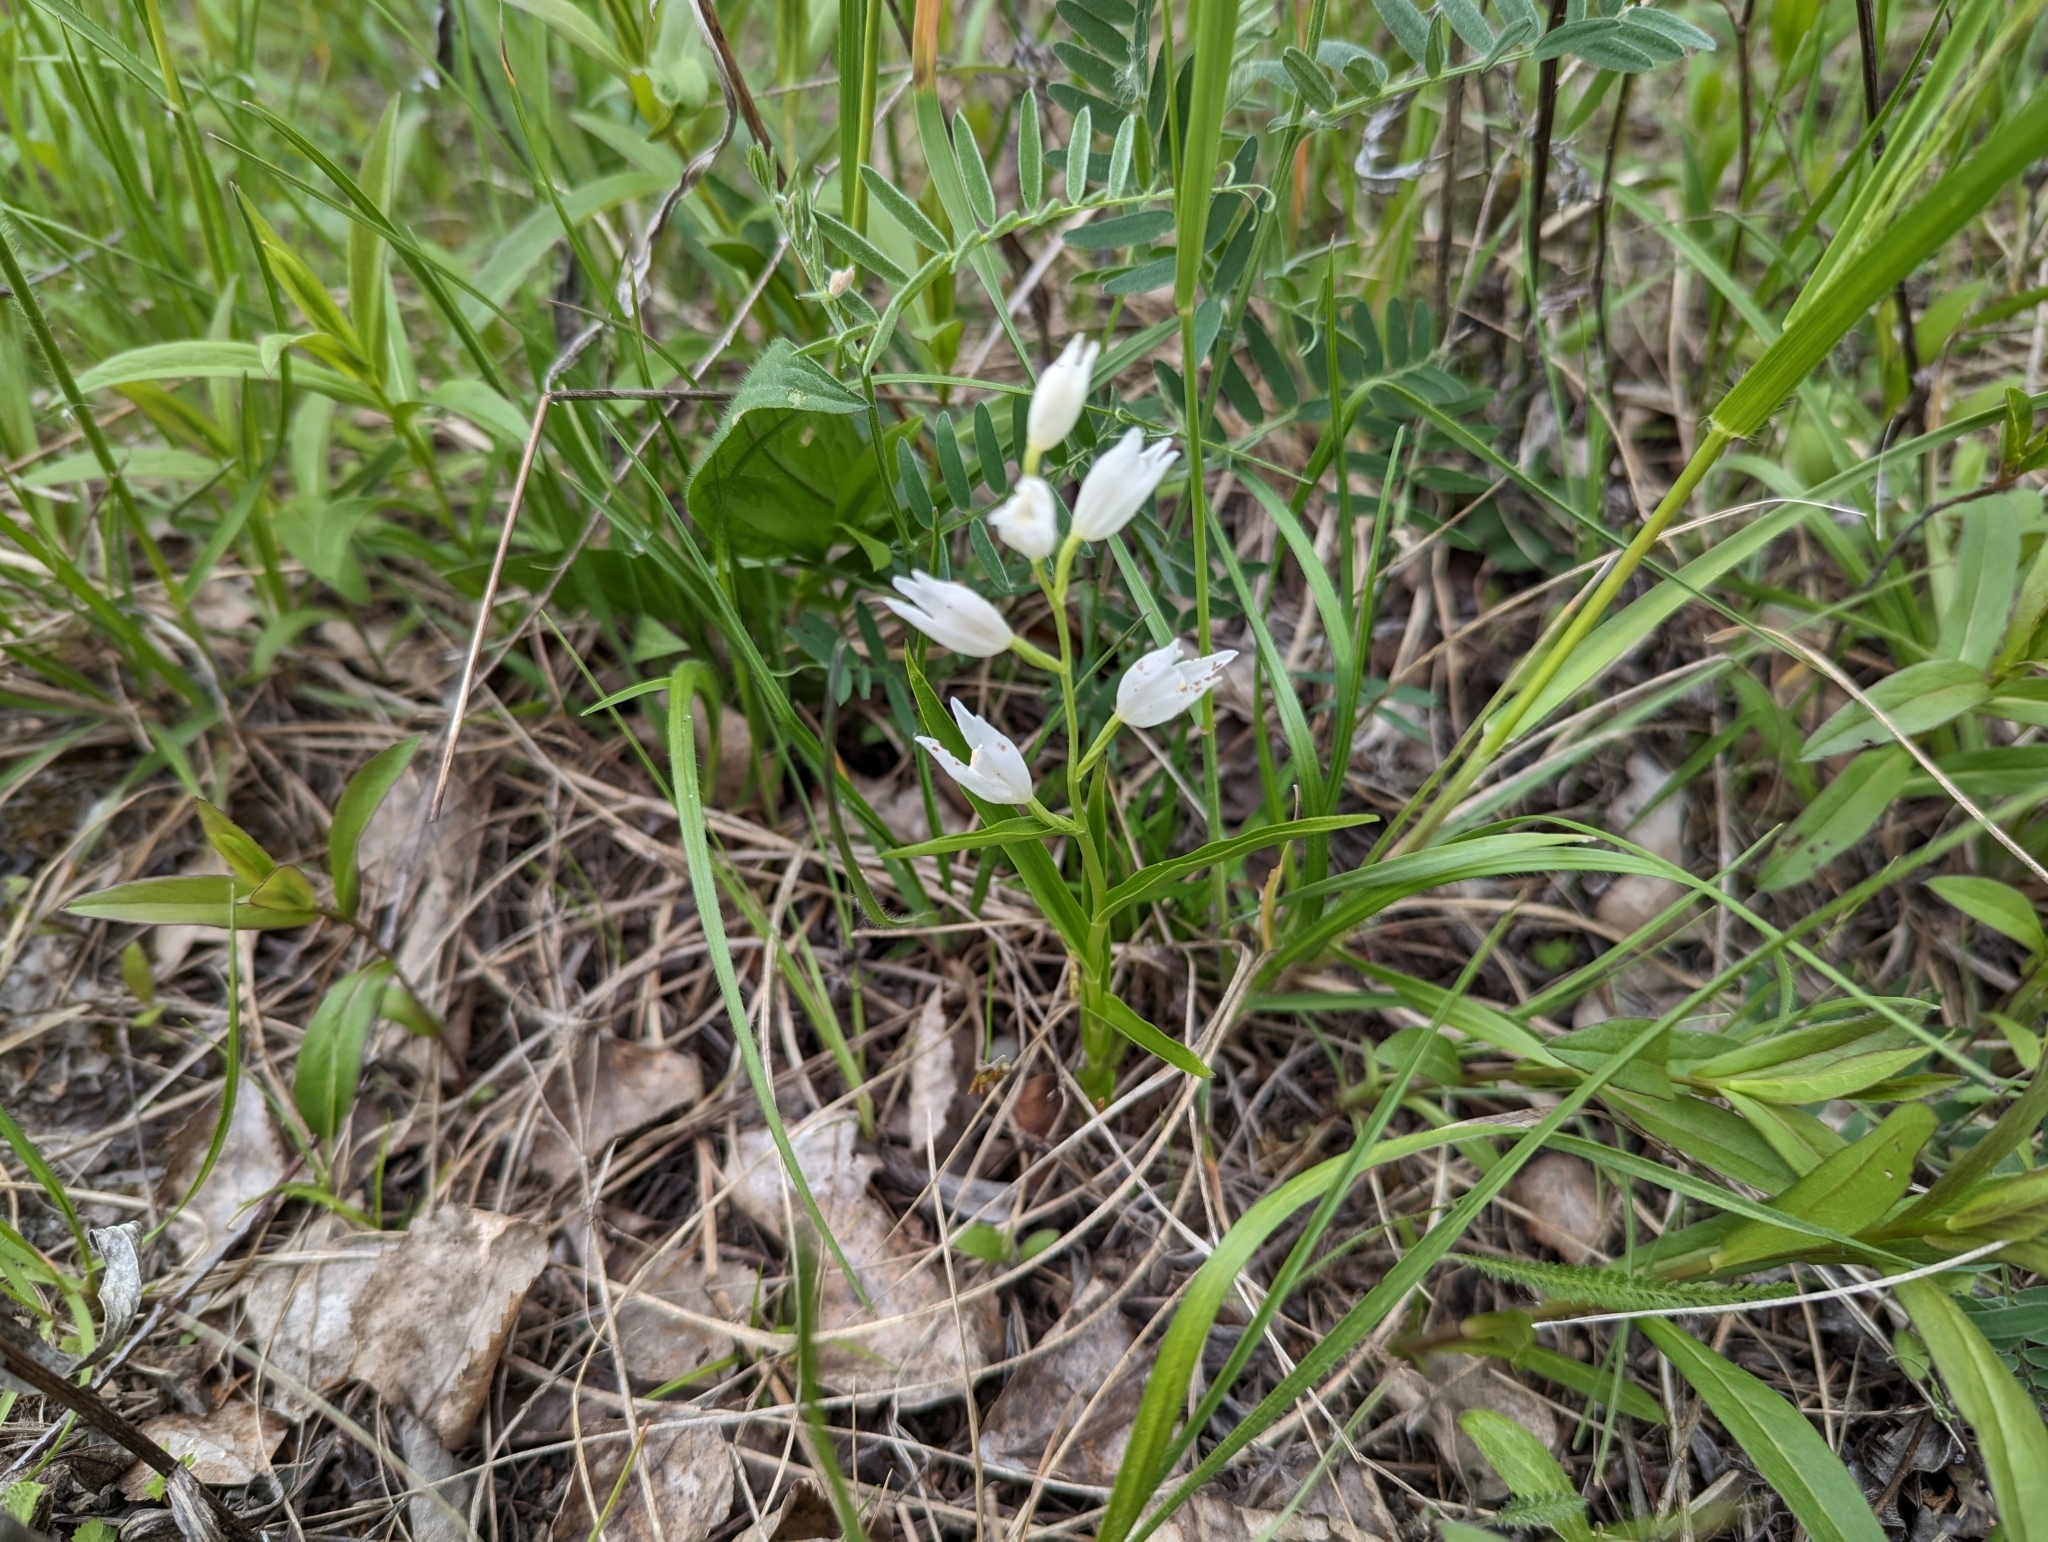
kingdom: Plantae
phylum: Tracheophyta
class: Liliopsida
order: Asparagales
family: Orchidaceae
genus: Cephalanthera
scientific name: Cephalanthera longifolia
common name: Narrow-leaved helleborine
